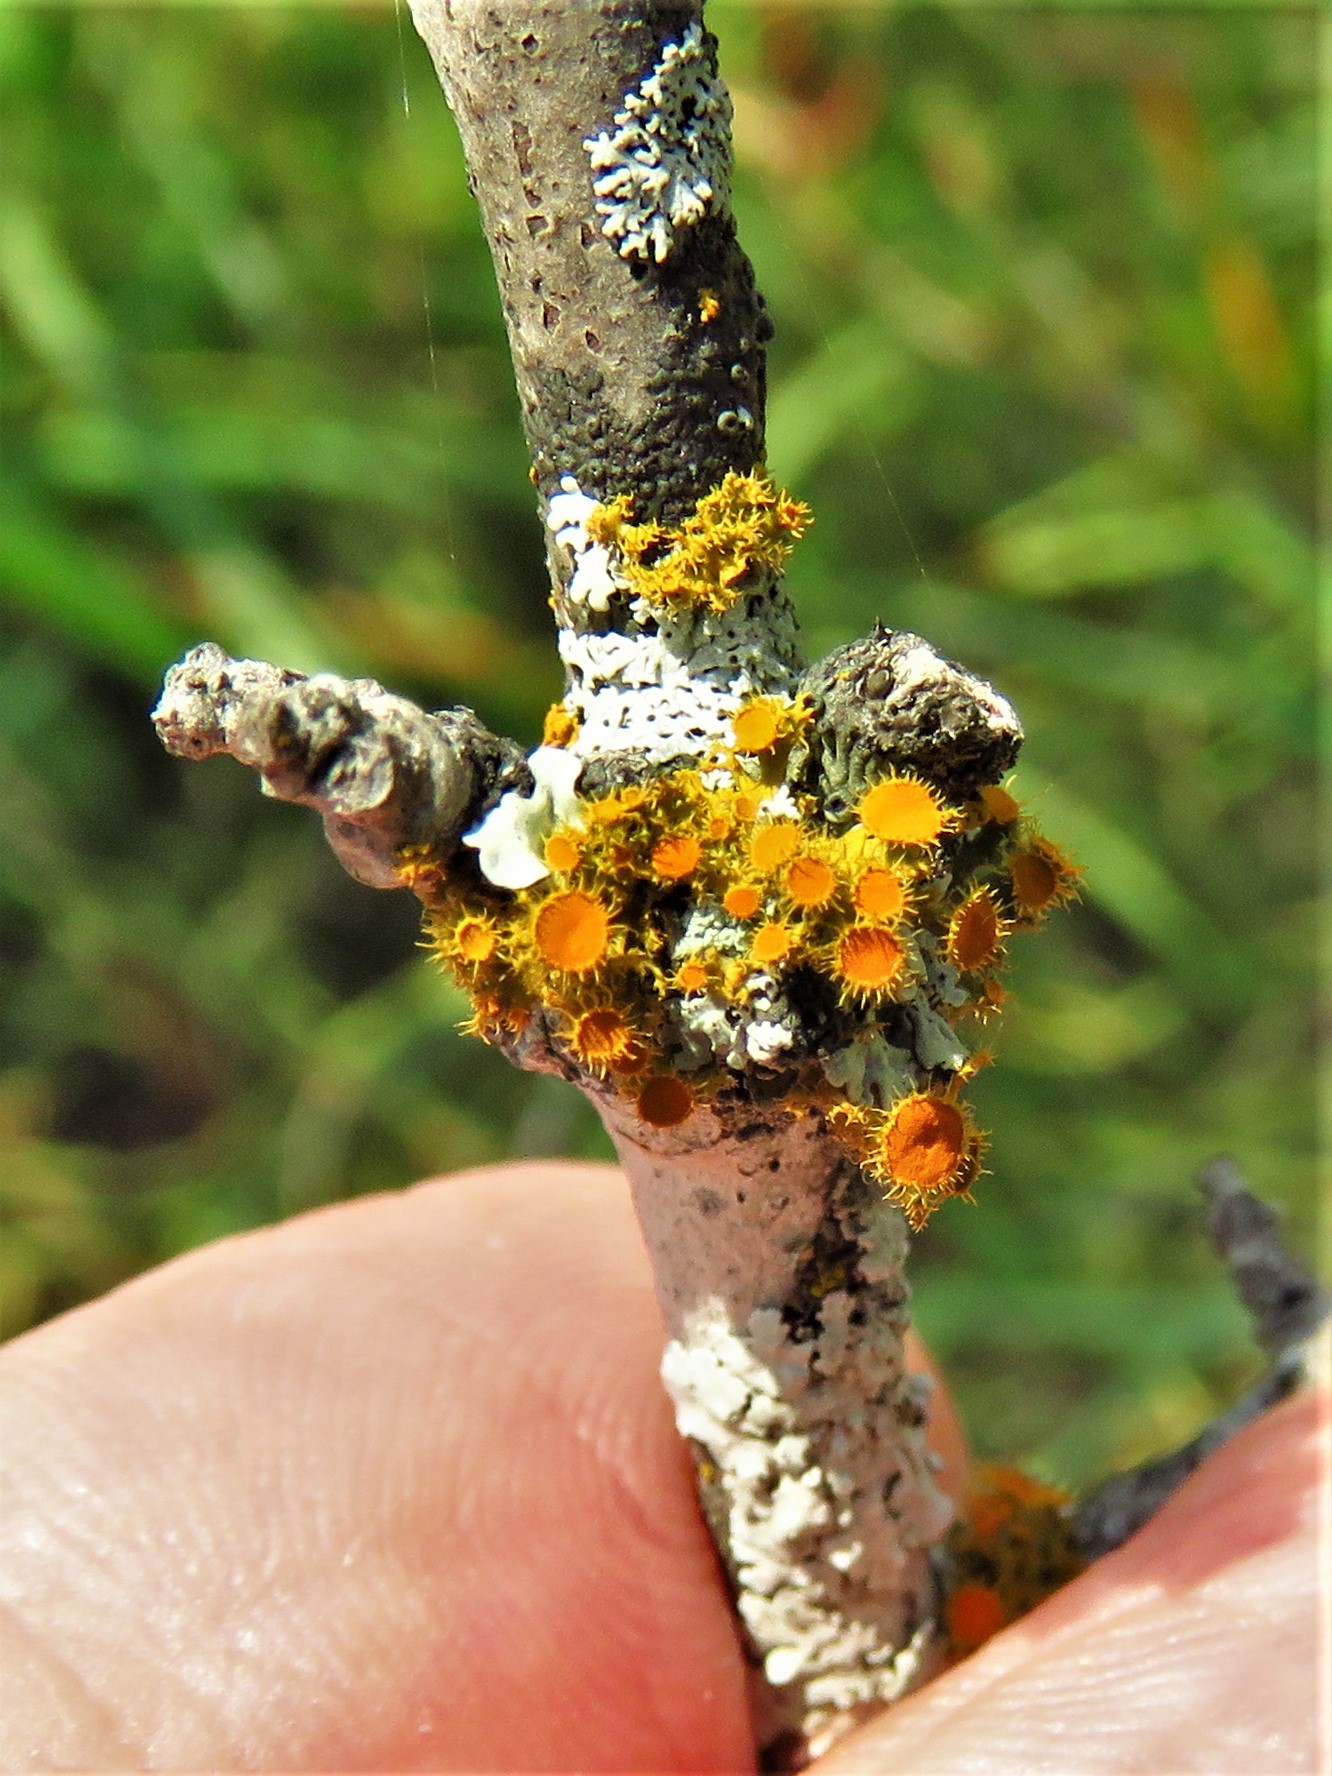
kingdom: Fungi
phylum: Ascomycota
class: Lecanoromycetes
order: Teloschistales
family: Teloschistaceae
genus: Niorma
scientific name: Niorma chrysophthalma
